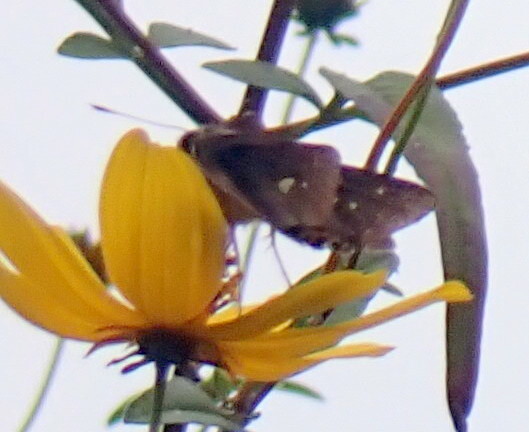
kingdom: Animalia
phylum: Arthropoda
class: Insecta
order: Lepidoptera
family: Hesperiidae
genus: Panoquina
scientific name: Panoquina ocola
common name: Ocola skipper
